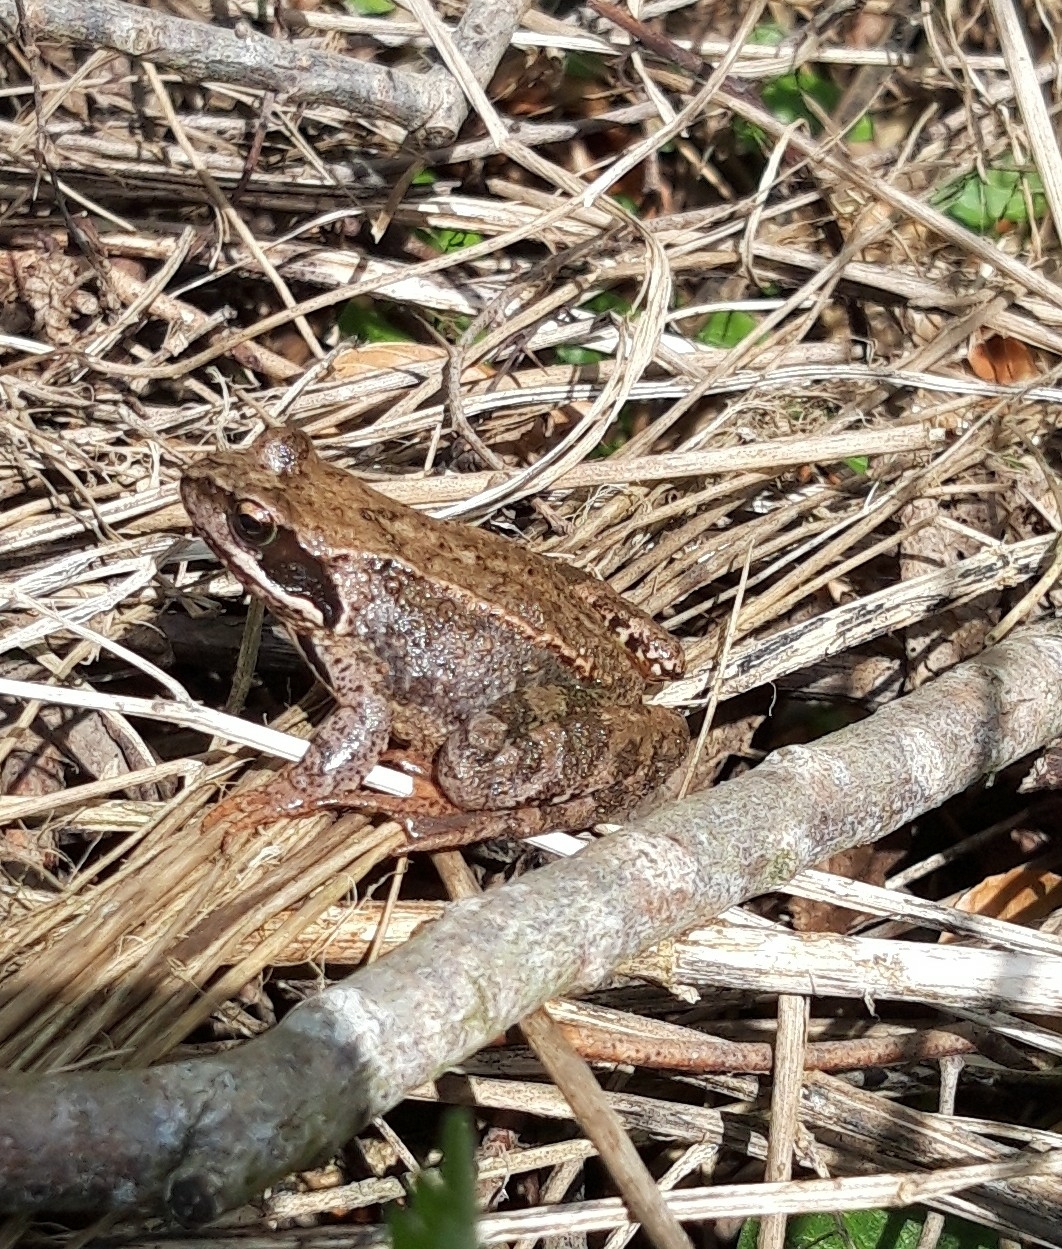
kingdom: Animalia
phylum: Chordata
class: Amphibia
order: Anura
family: Ranidae
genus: Rana
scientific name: Rana temporaria
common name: Common frog
